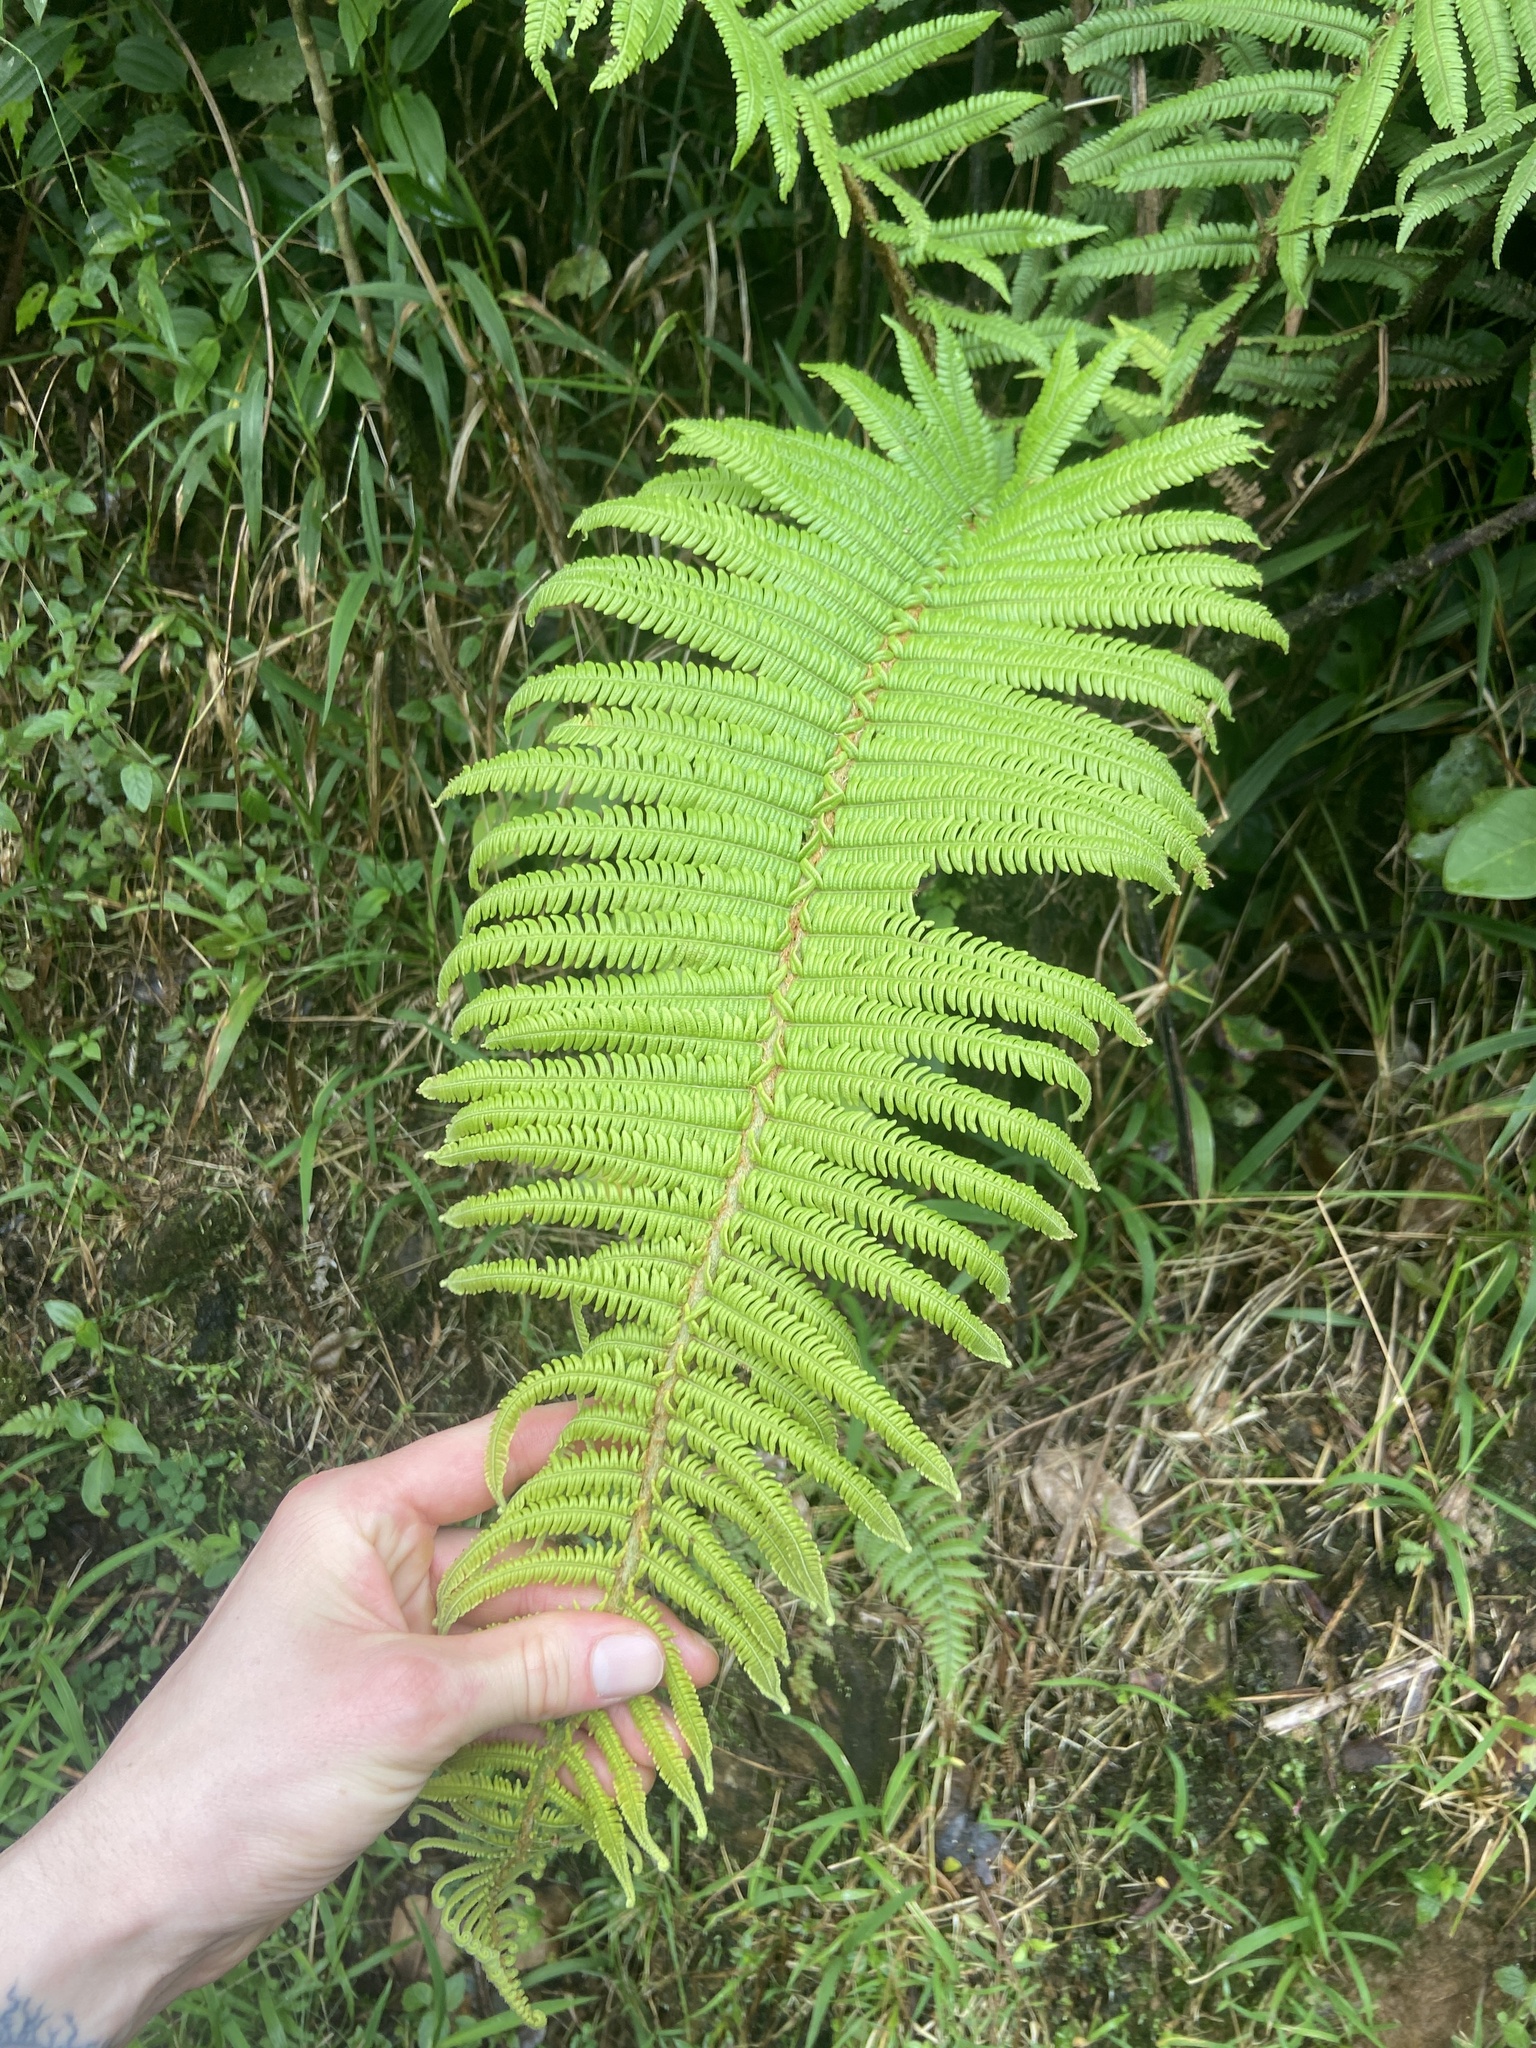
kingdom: Plantae
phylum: Tracheophyta
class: Polypodiopsida
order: Cyatheales
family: Cyatheaceae
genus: Alsophila
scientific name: Alsophila bryophila
